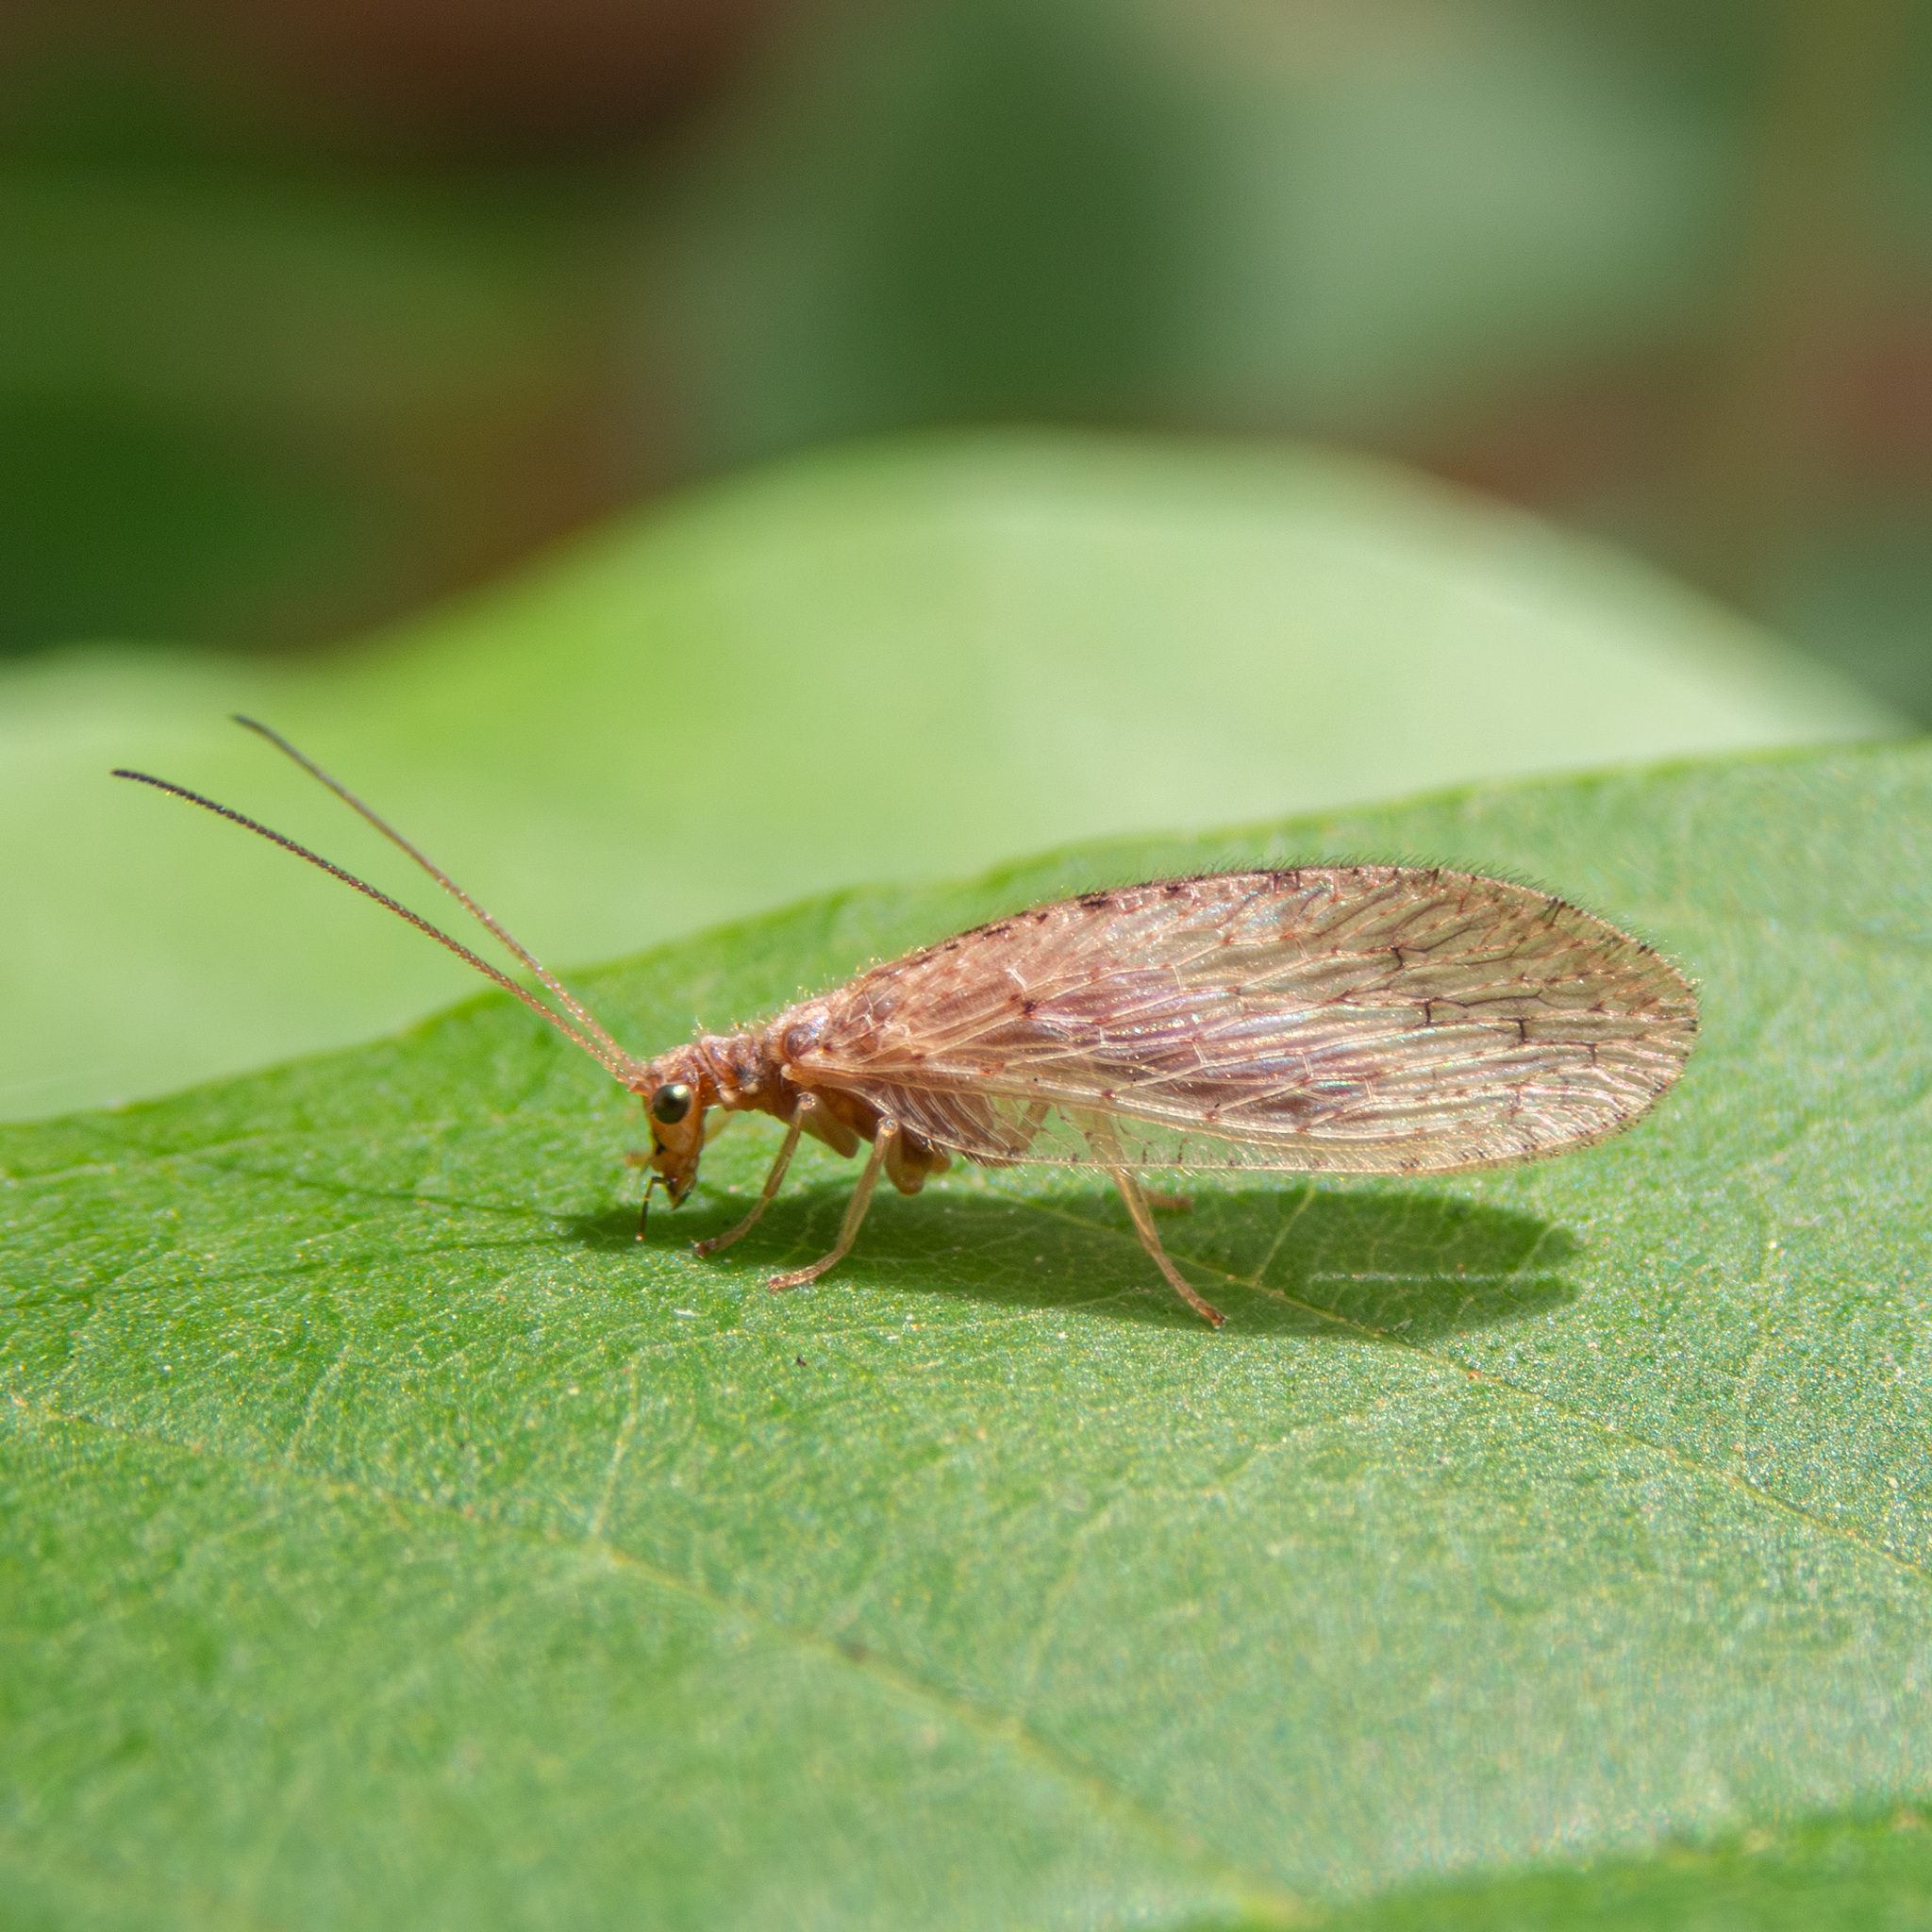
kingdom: Animalia
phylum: Arthropoda
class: Insecta
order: Neuroptera
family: Hemerobiidae
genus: Micromus
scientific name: Micromus subanticus
